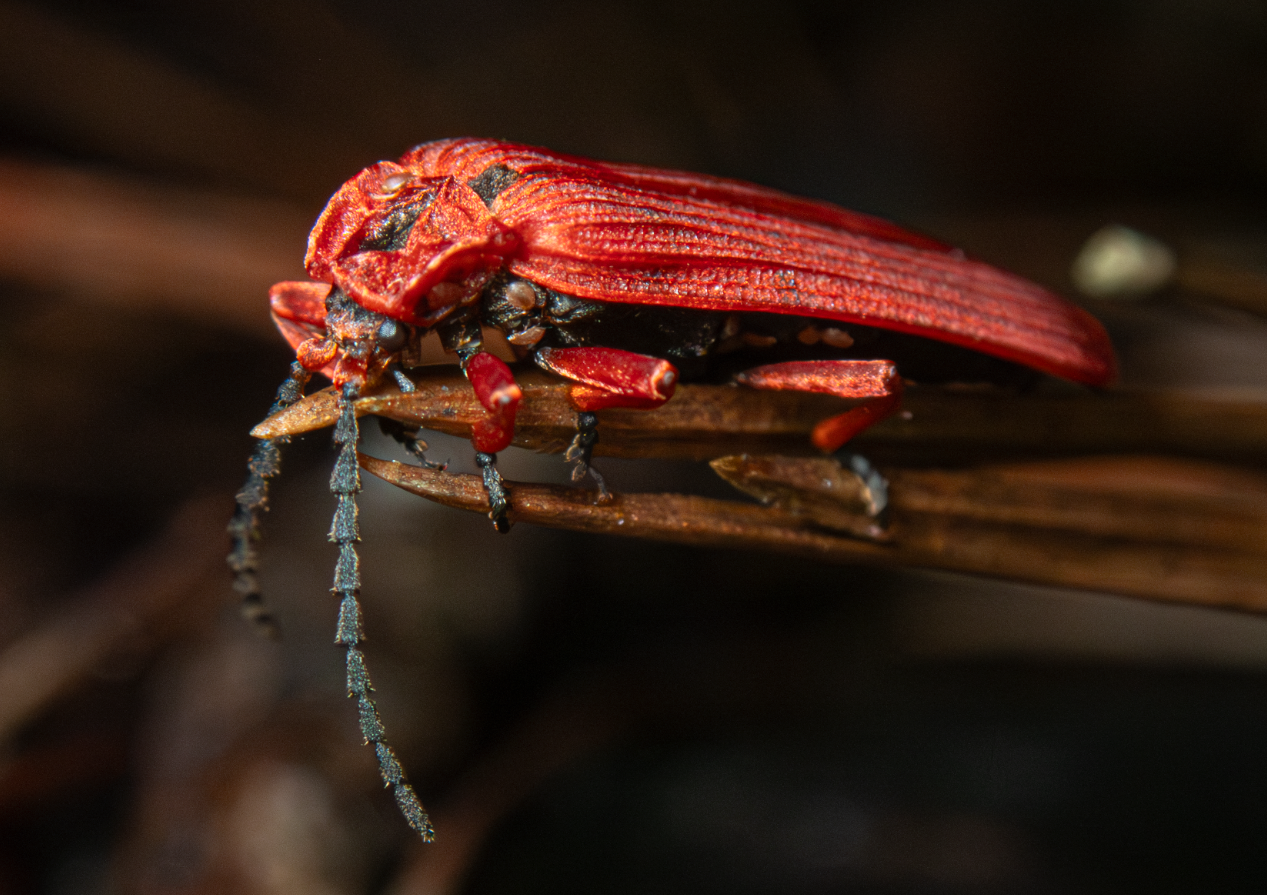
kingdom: Animalia
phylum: Arthropoda
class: Insecta
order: Coleoptera
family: Lycidae
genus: Dictyoptera
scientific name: Dictyoptera simplicipes
